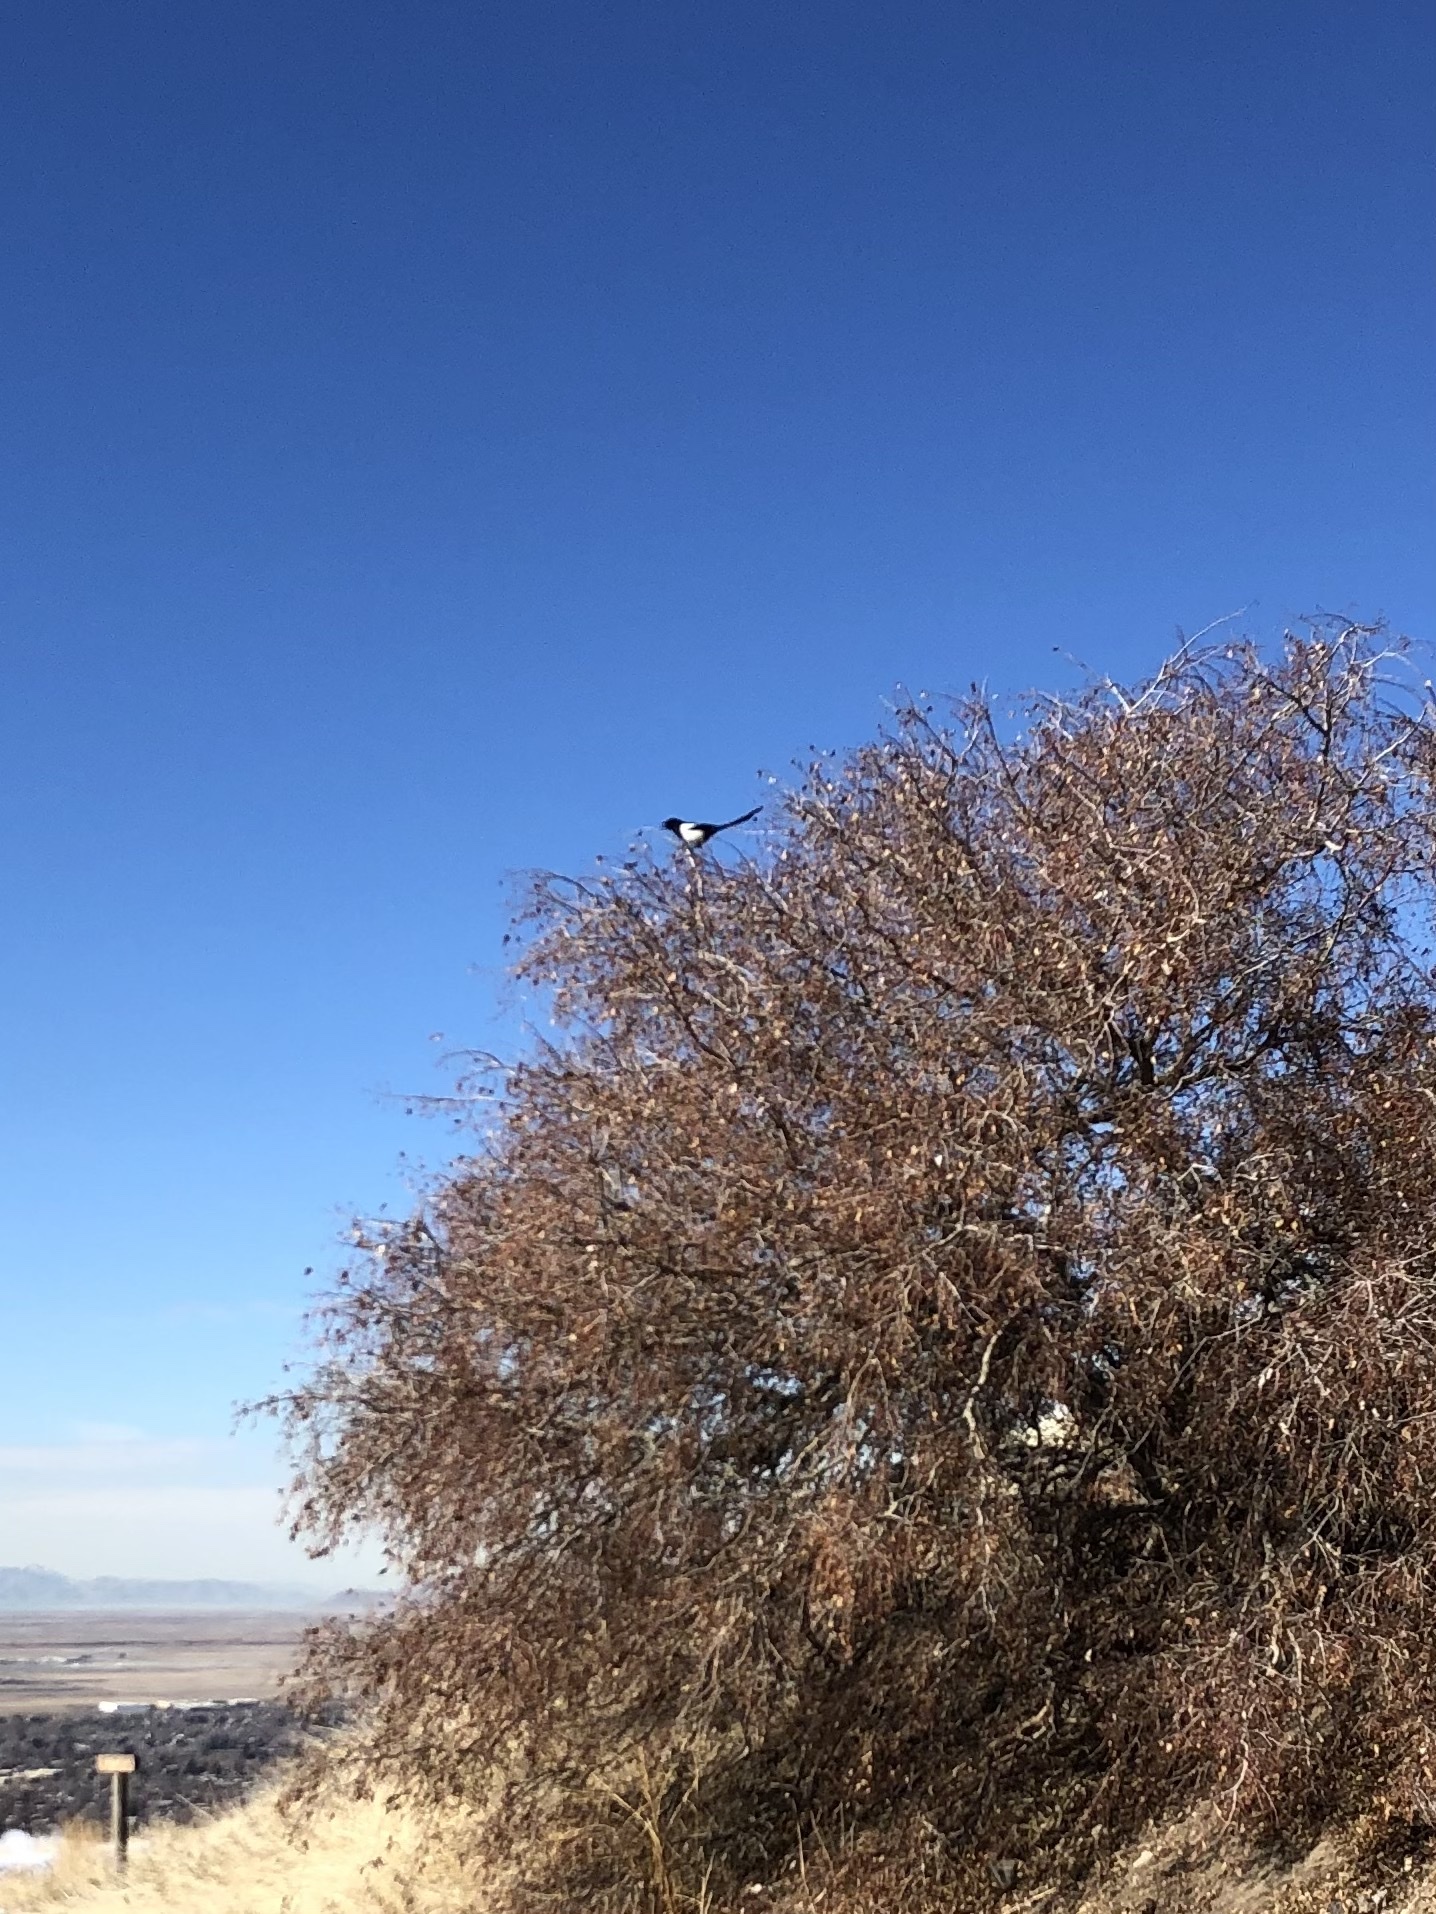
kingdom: Animalia
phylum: Chordata
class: Aves
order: Passeriformes
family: Corvidae
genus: Pica
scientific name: Pica hudsonia
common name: Black-billed magpie
